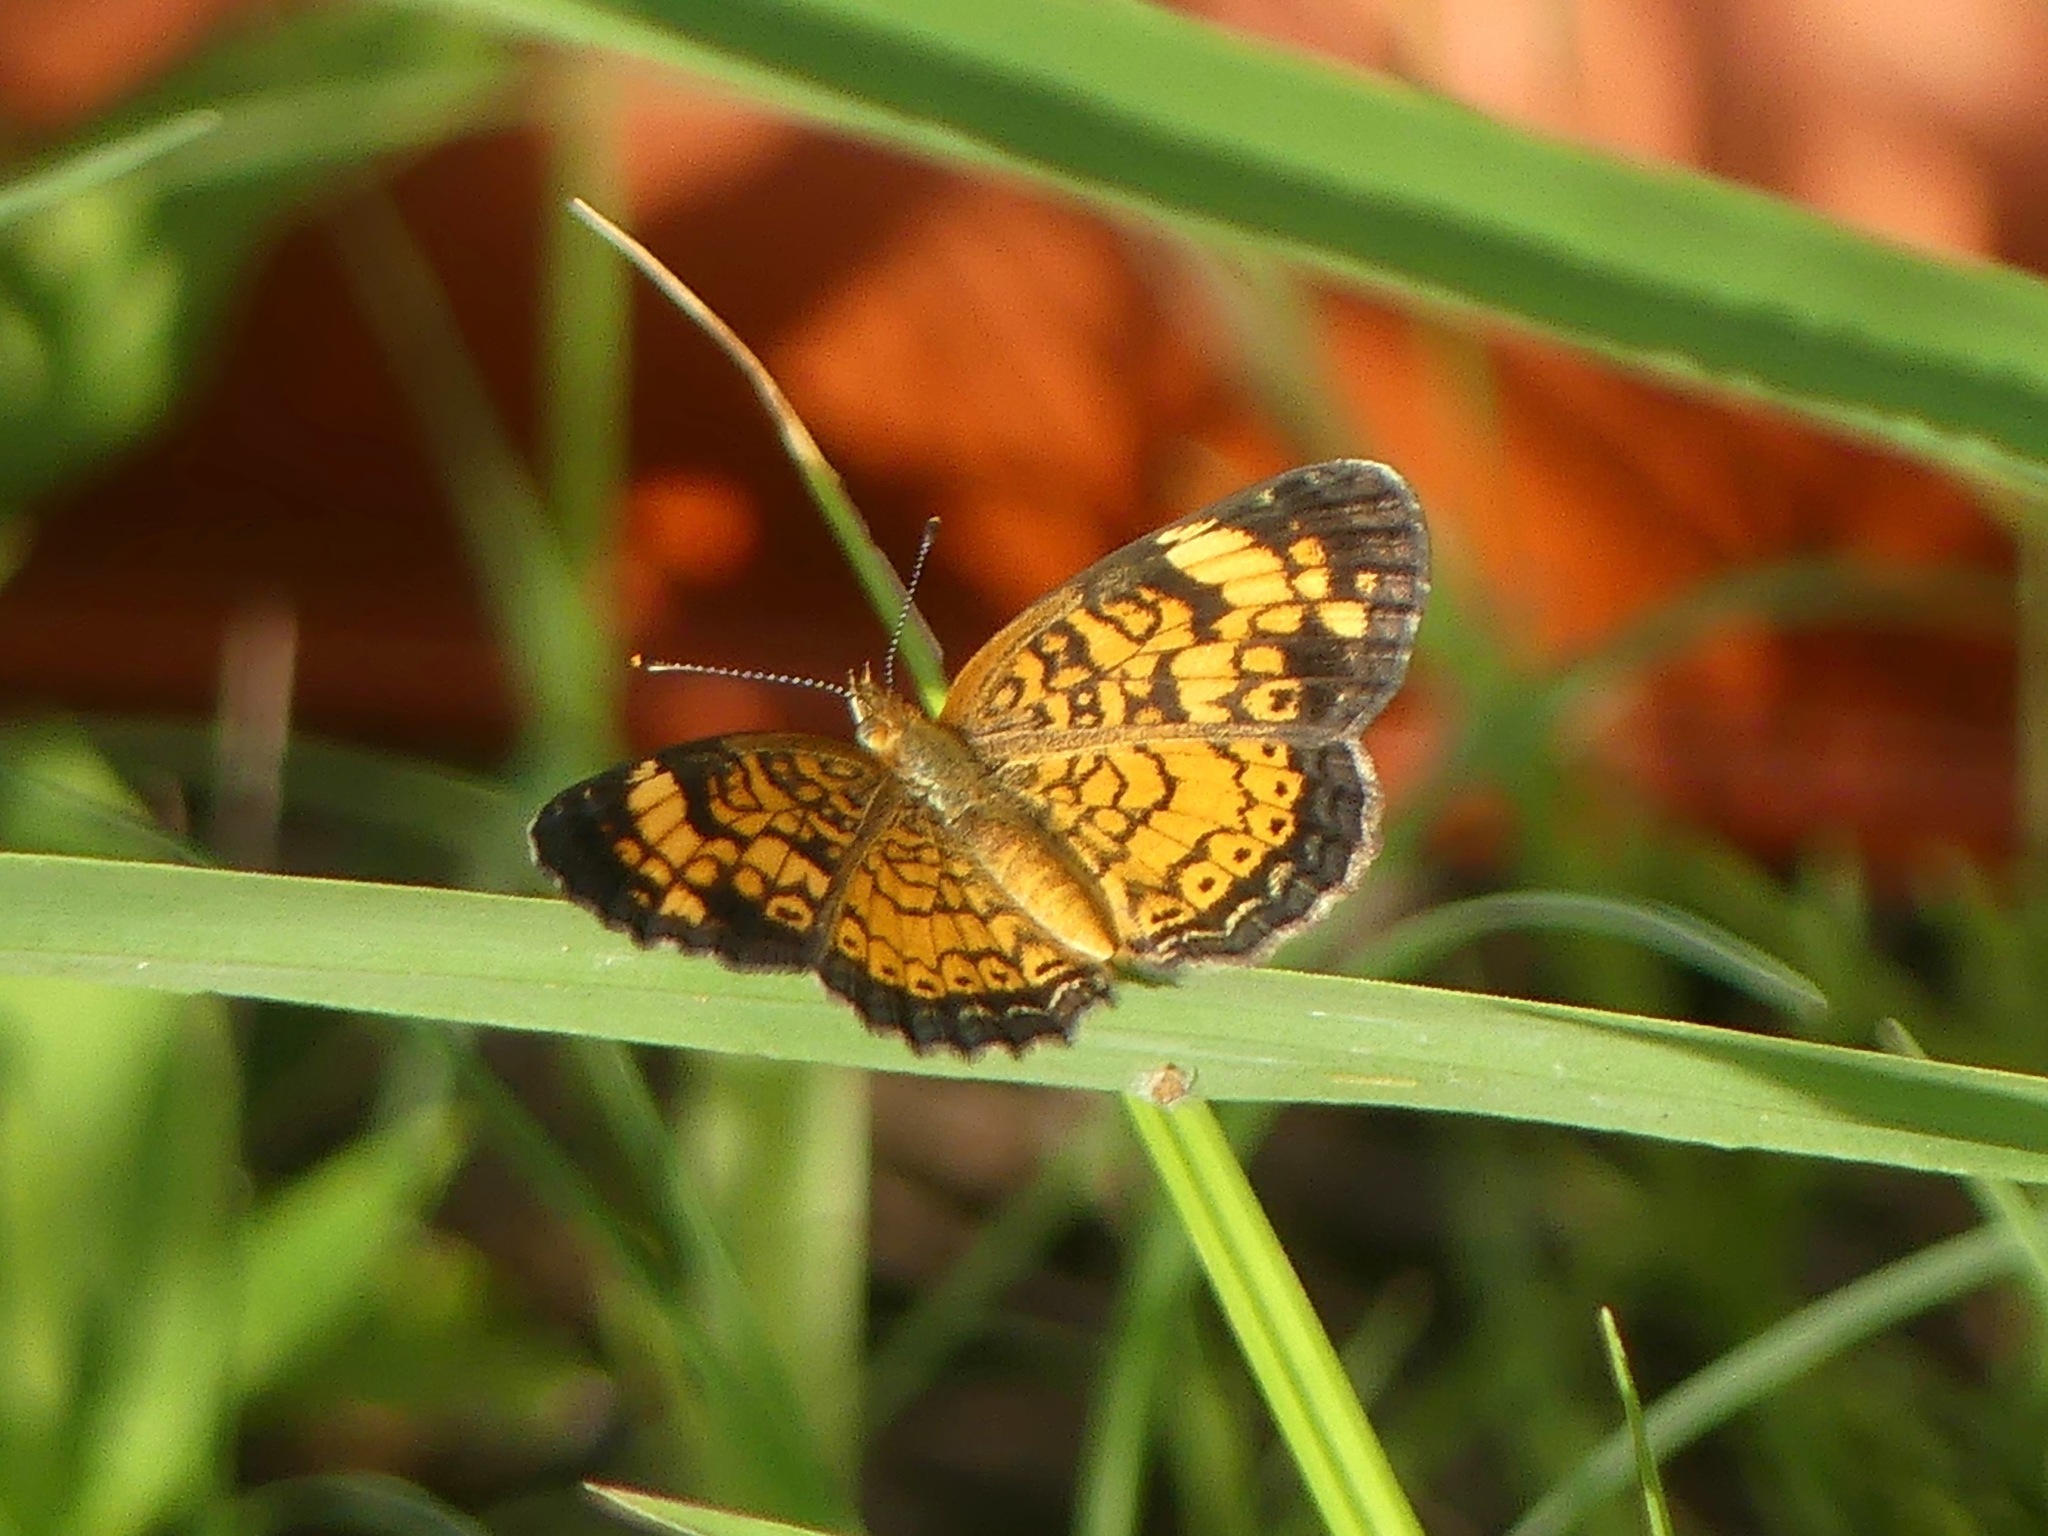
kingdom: Animalia
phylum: Arthropoda
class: Insecta
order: Lepidoptera
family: Nymphalidae
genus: Phyciodes
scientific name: Phyciodes tharos
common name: Pearl crescent
